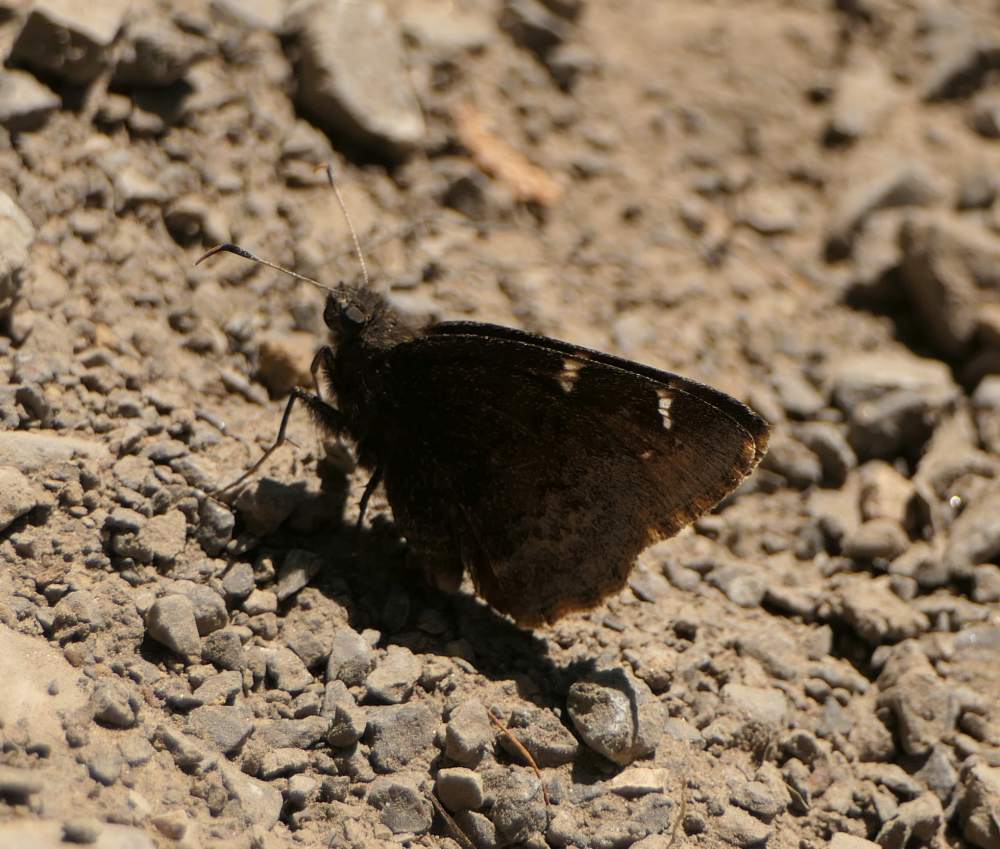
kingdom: Animalia
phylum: Arthropoda
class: Insecta
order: Lepidoptera
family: Hesperiidae
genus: Thorybes
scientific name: Thorybes pylades
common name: Northern cloudywing
